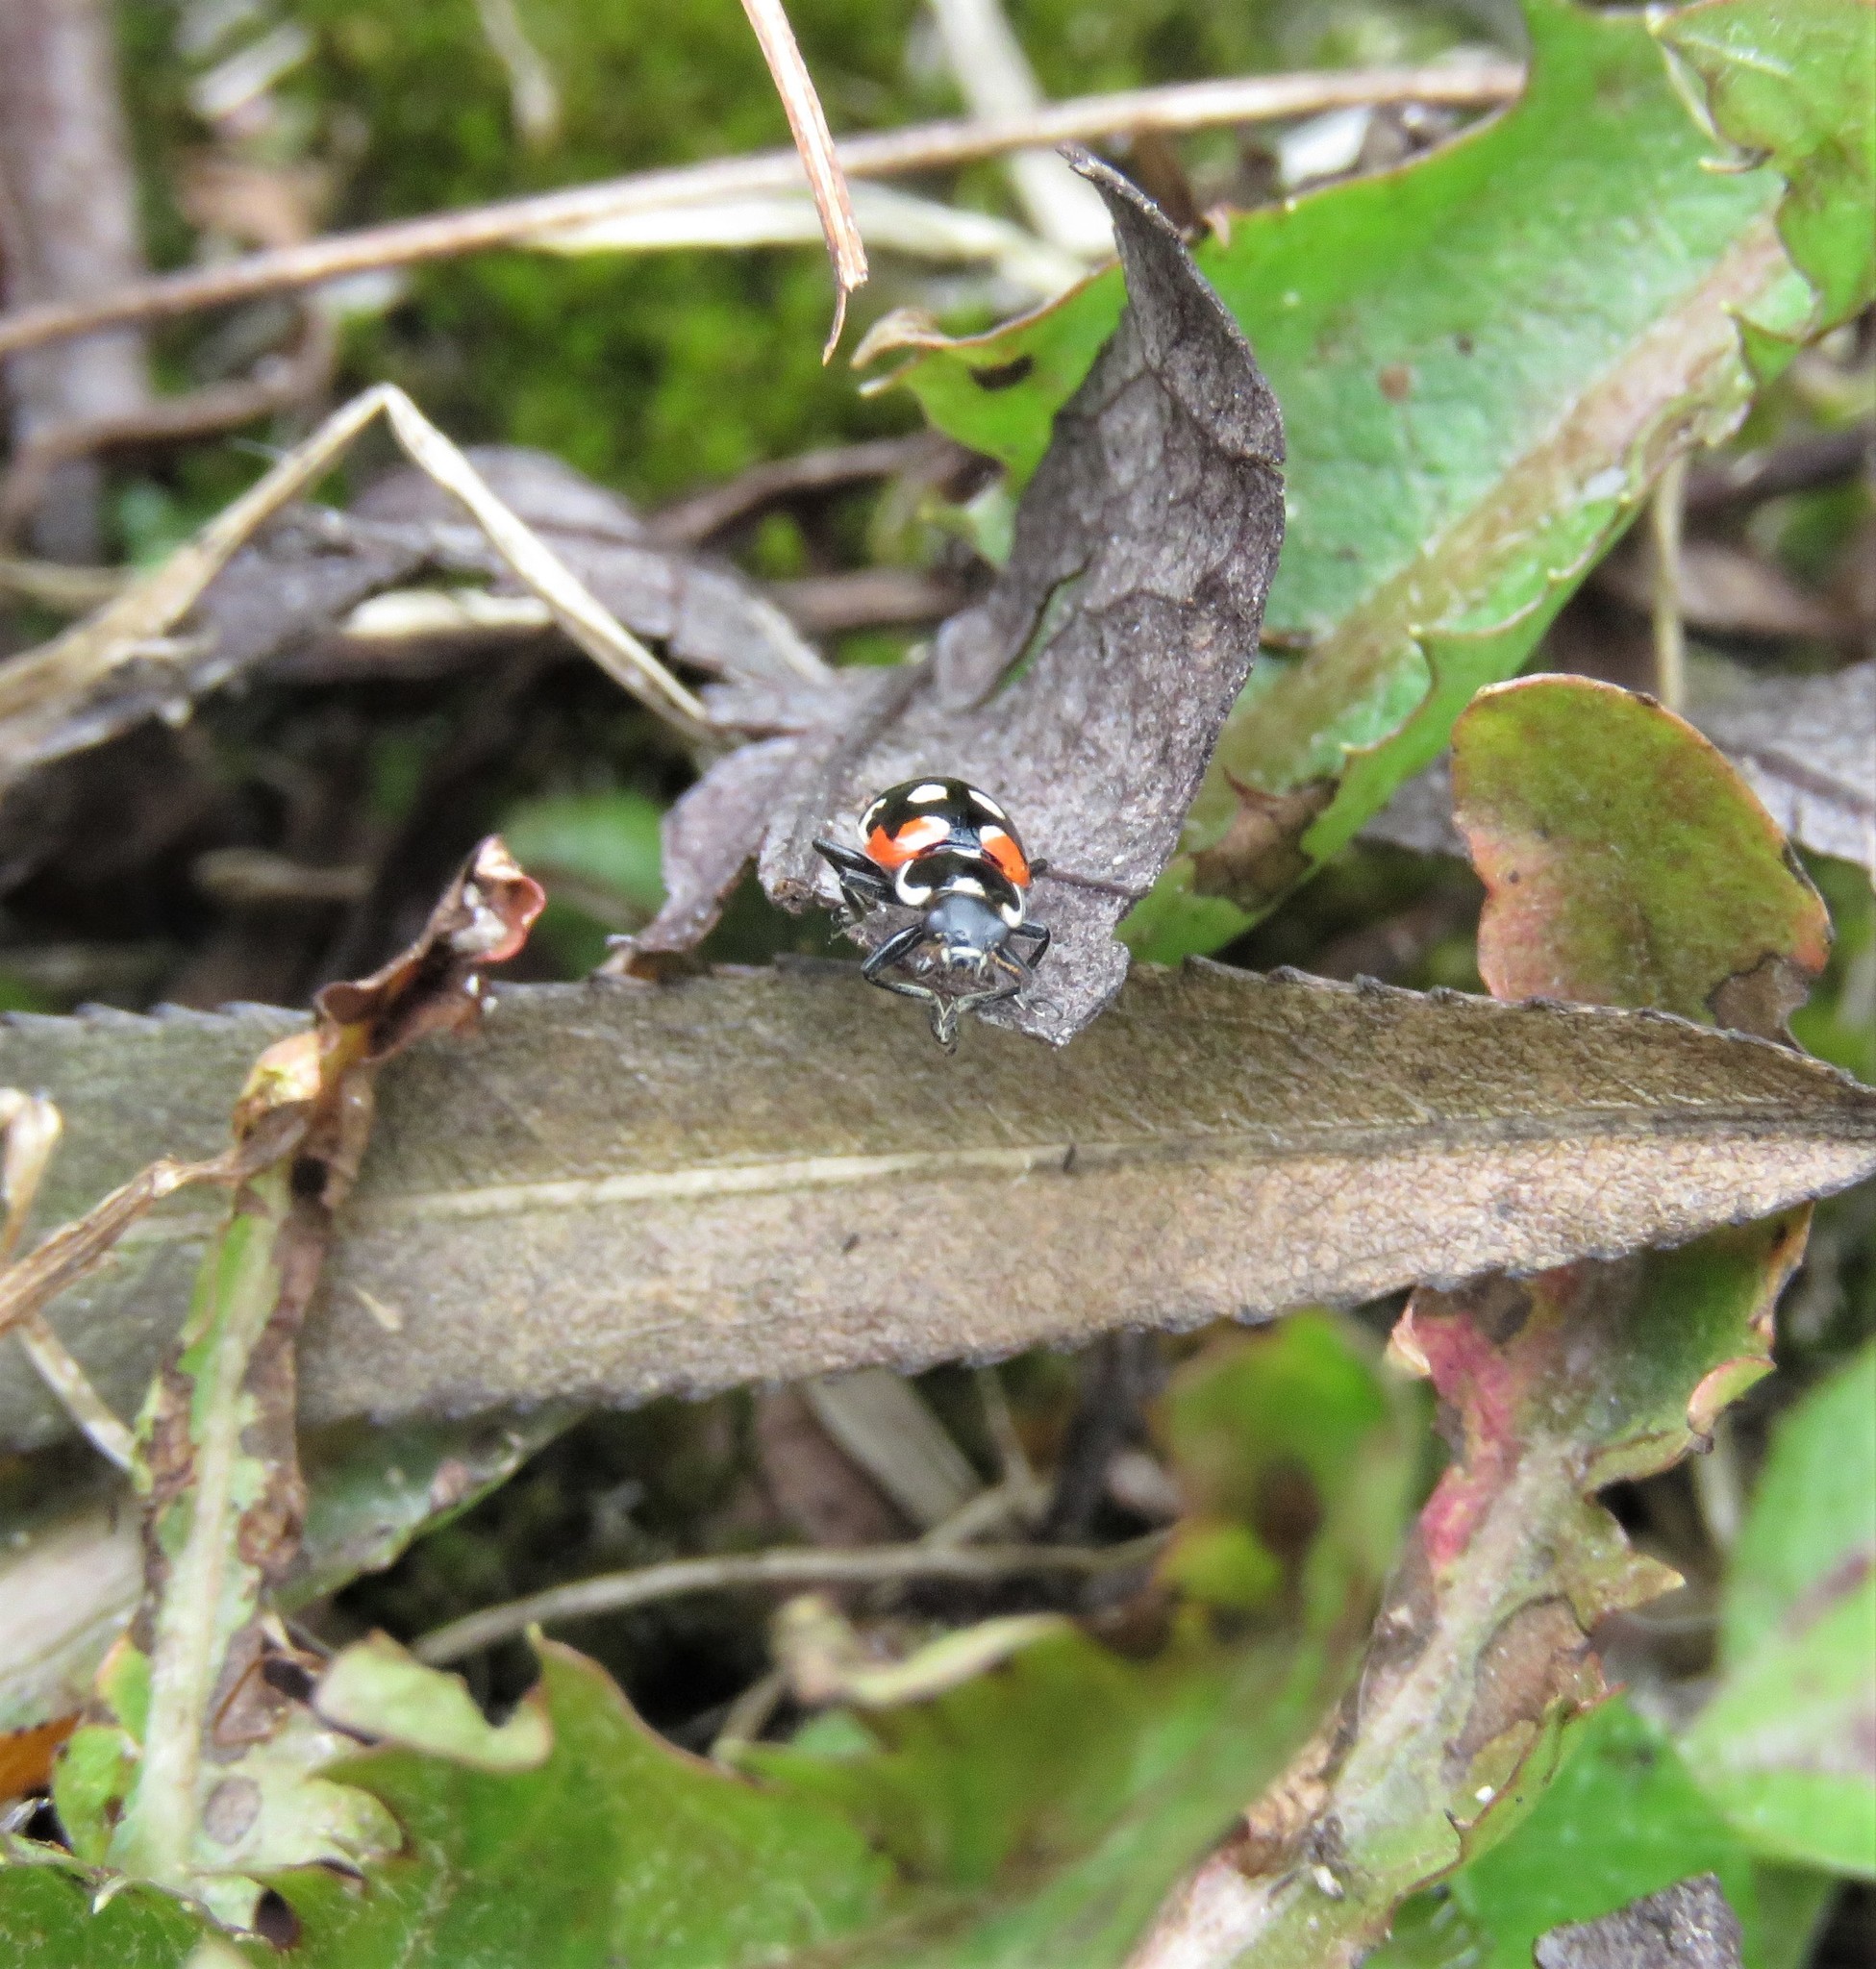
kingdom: Animalia
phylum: Arthropoda
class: Insecta
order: Coleoptera
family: Coccinellidae
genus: Eriopis
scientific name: Eriopis punicola
